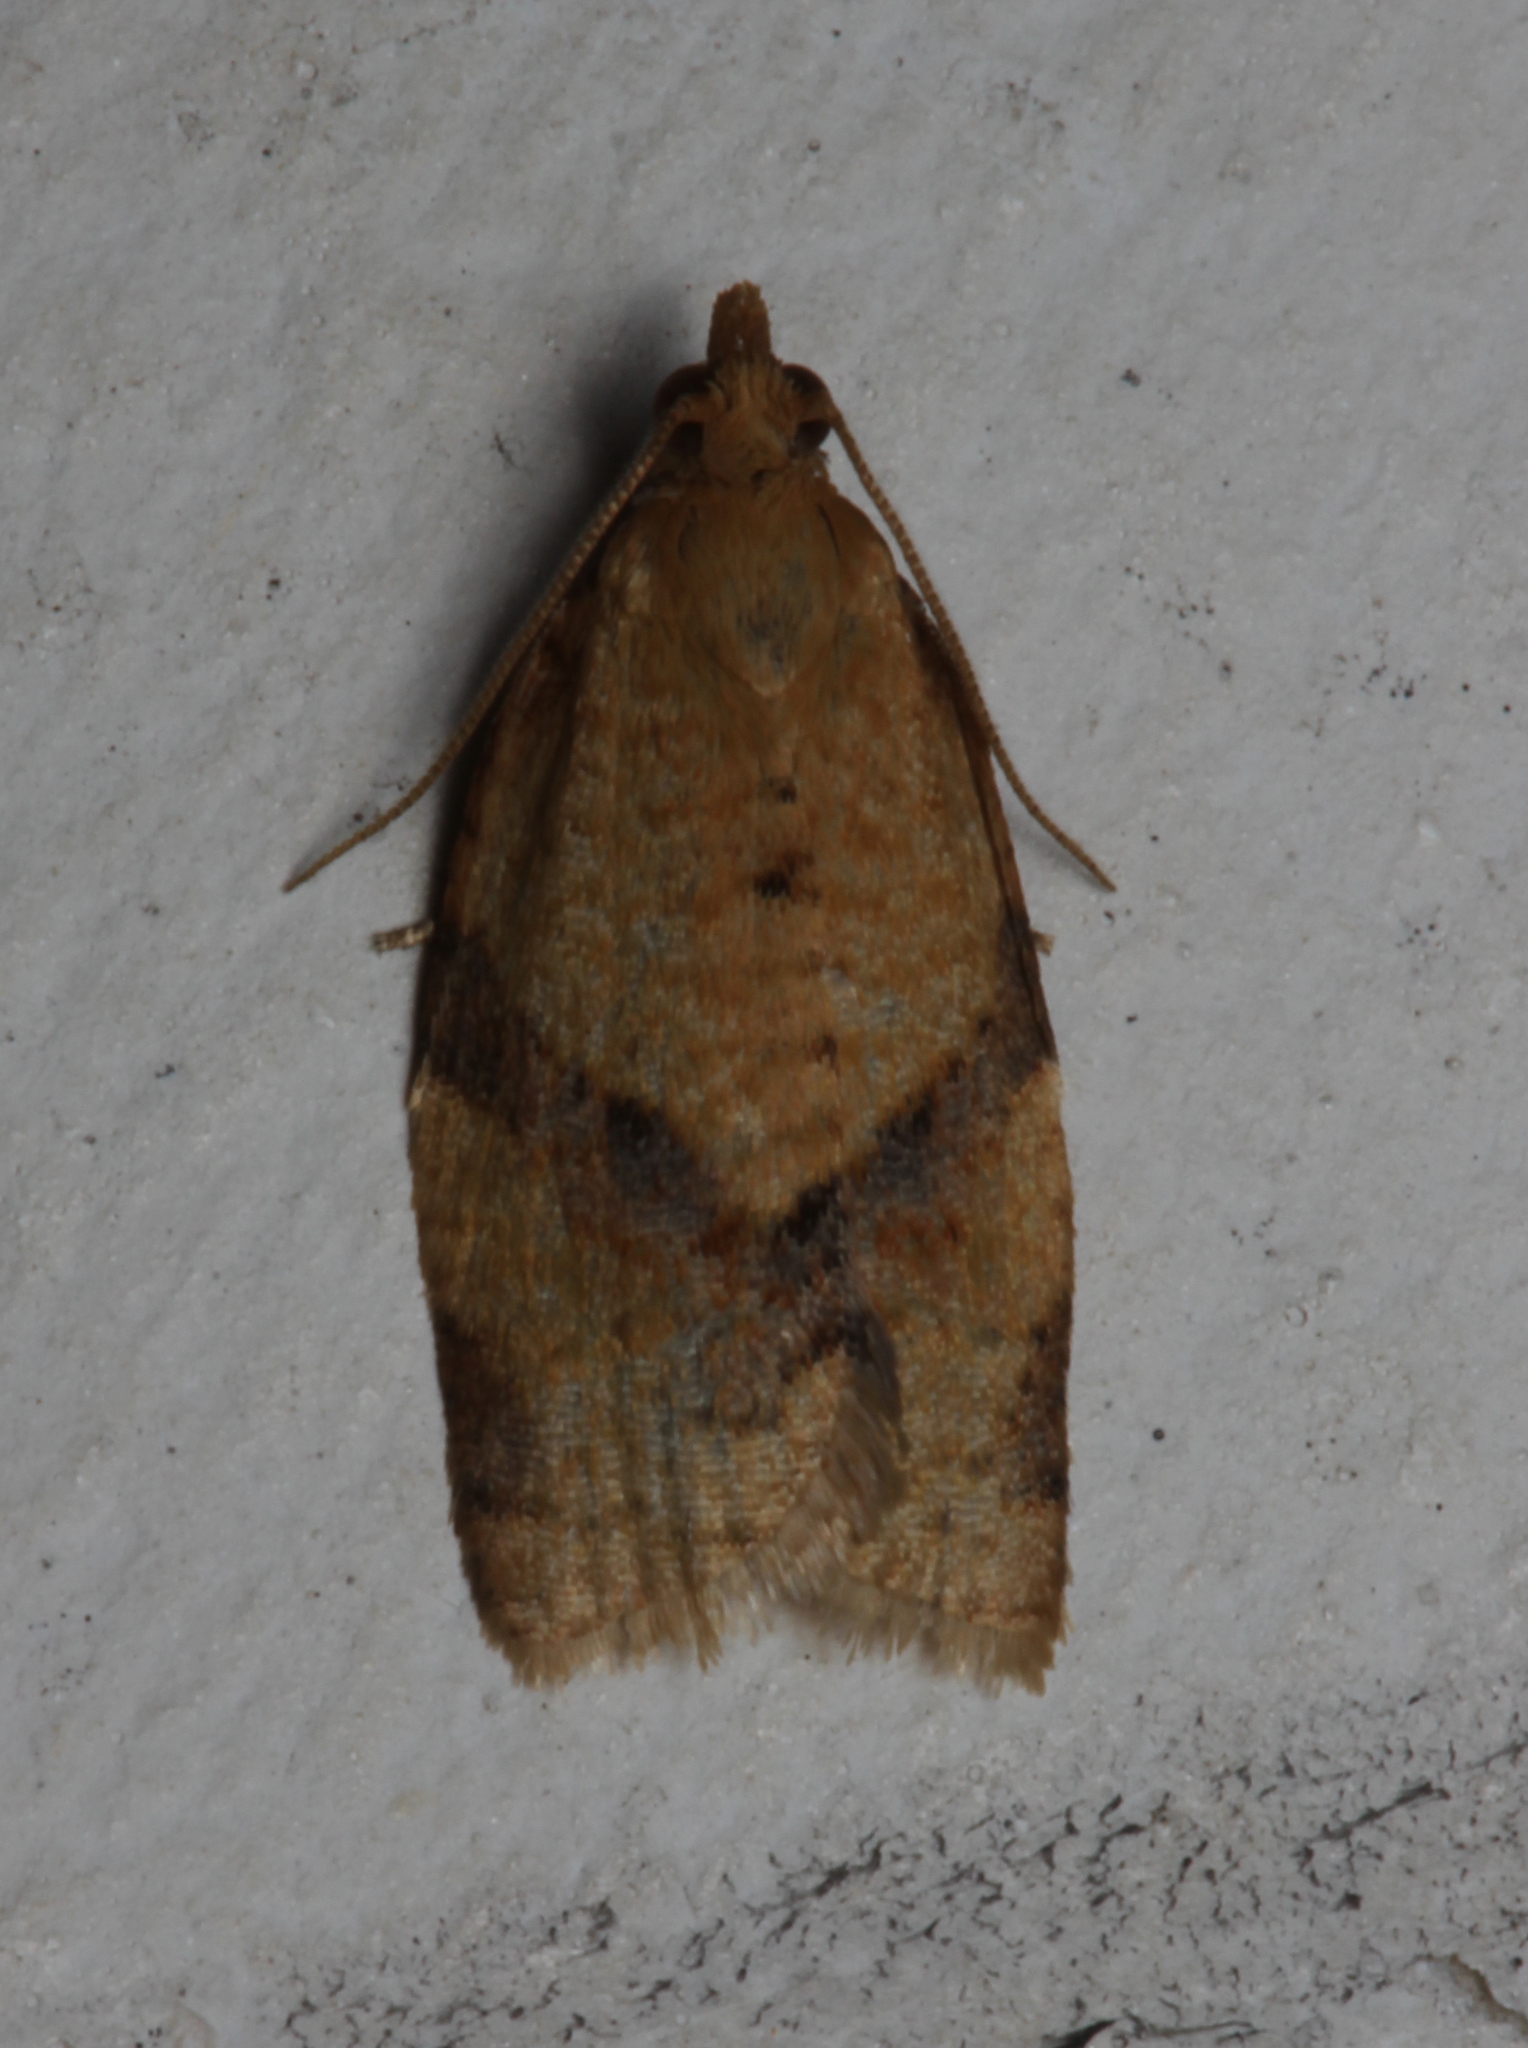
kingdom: Animalia
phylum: Arthropoda
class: Insecta
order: Lepidoptera
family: Tortricidae
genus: Clepsis
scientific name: Clepsis consimilana
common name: Privet tortrix
